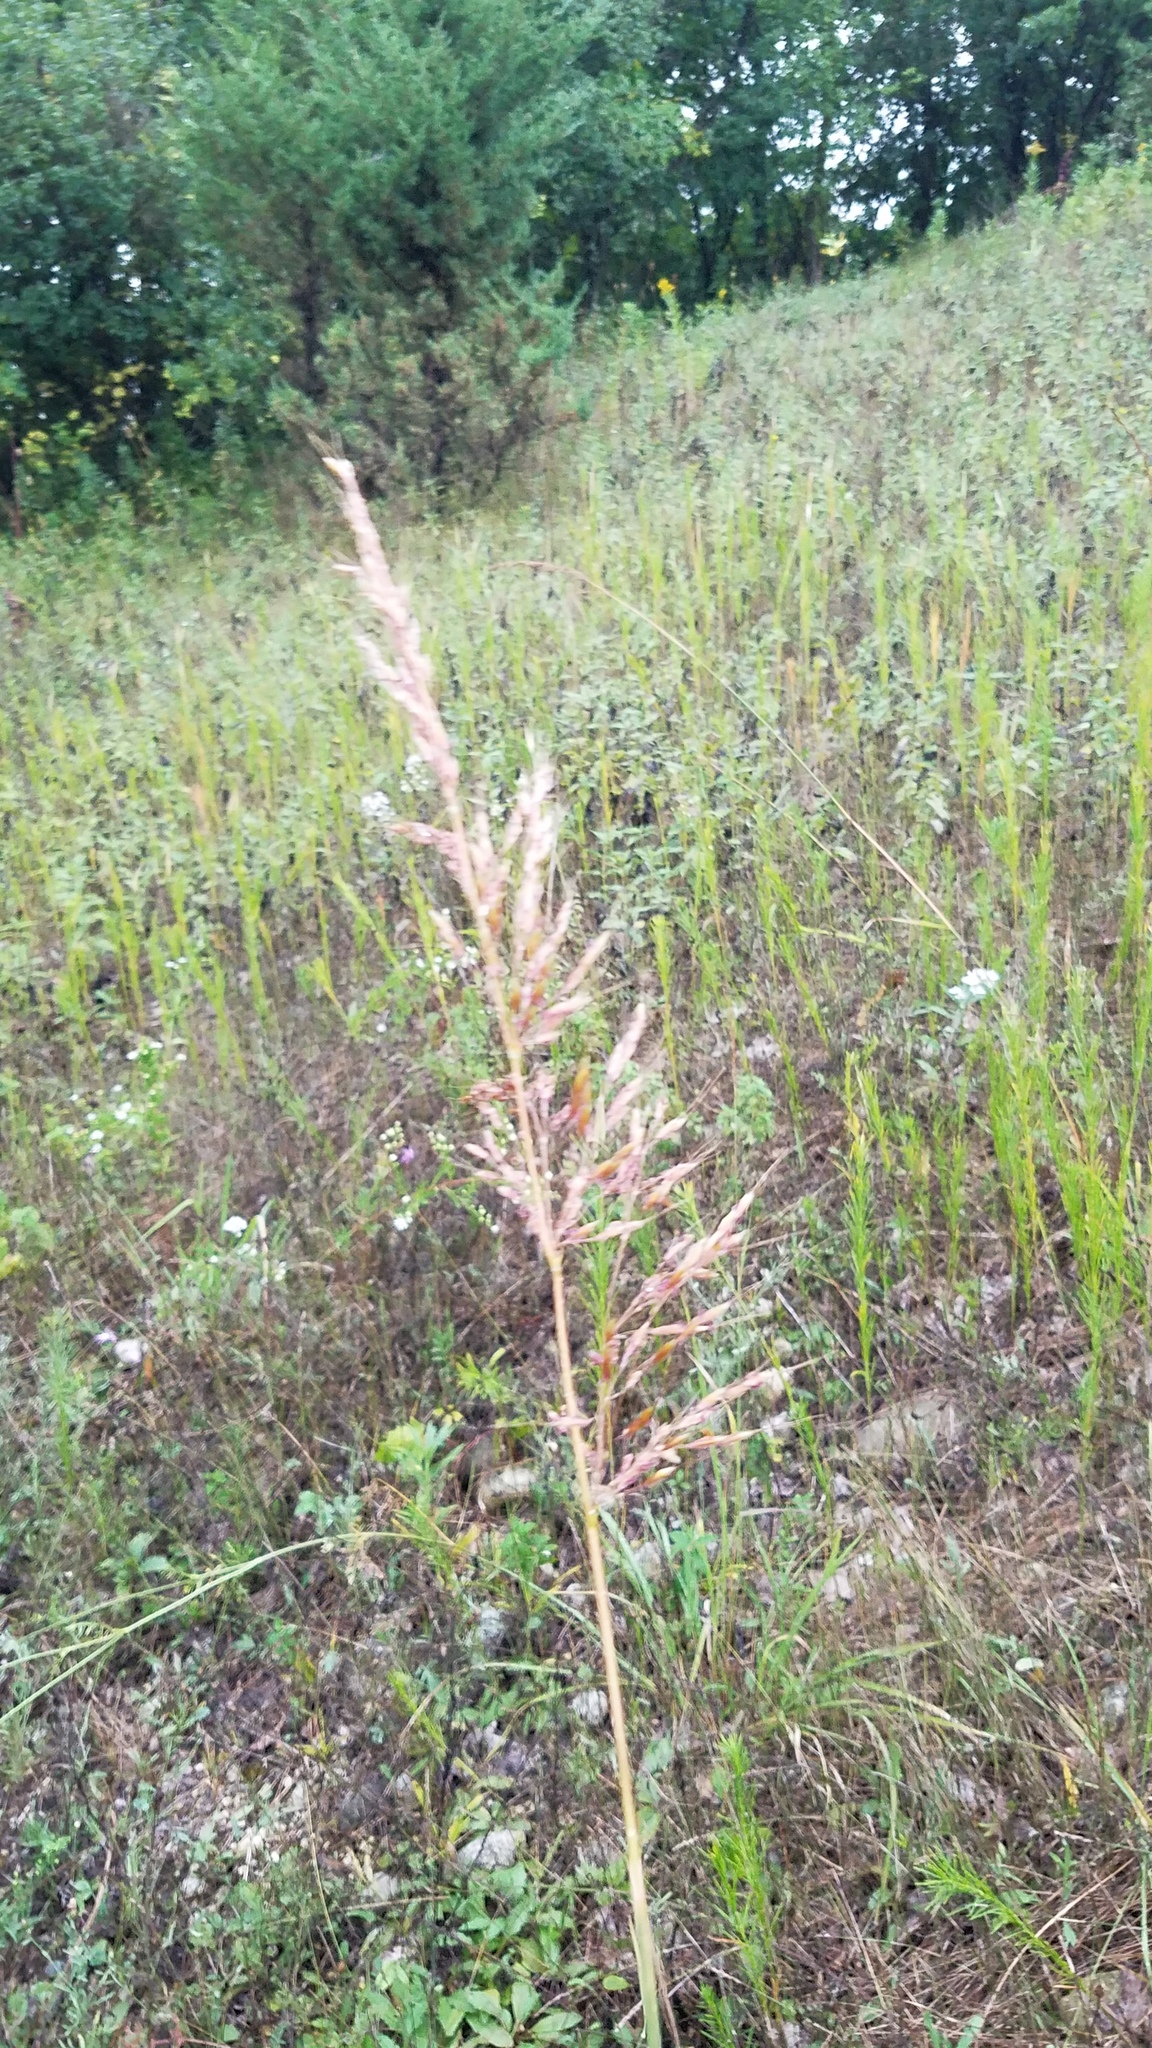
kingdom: Plantae
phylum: Tracheophyta
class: Liliopsida
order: Poales
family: Poaceae
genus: Sorghastrum
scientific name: Sorghastrum nutans
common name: Indian grass
